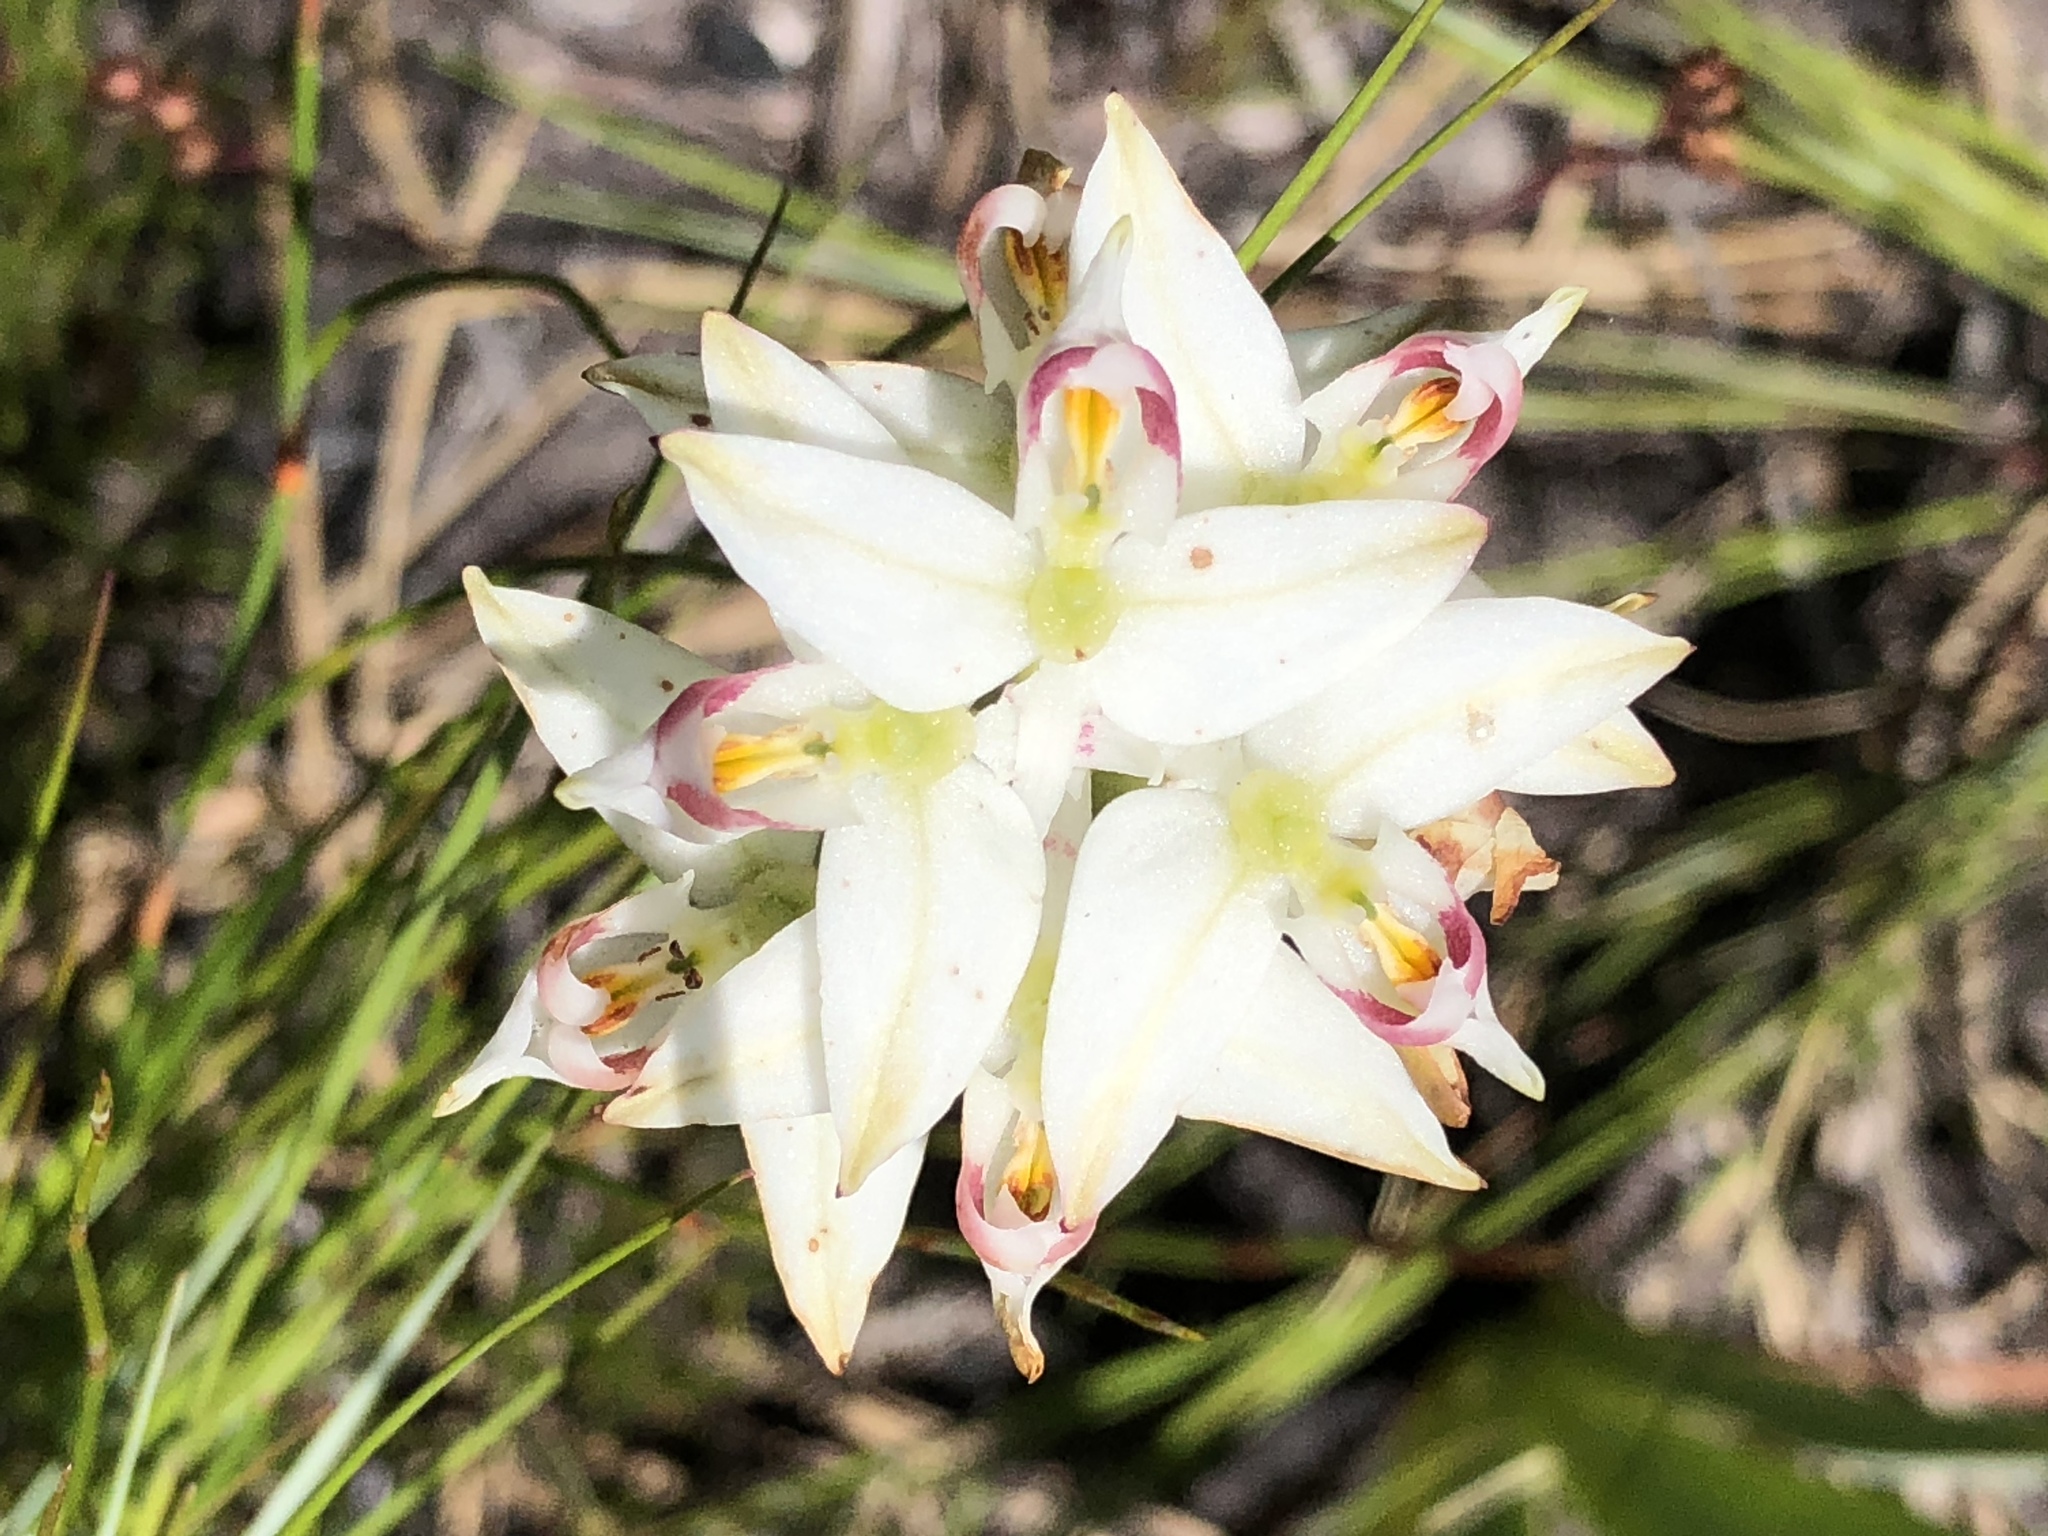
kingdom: Plantae
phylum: Tracheophyta
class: Liliopsida
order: Asparagales
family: Orchidaceae
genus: Disa
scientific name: Disa bivalvata
